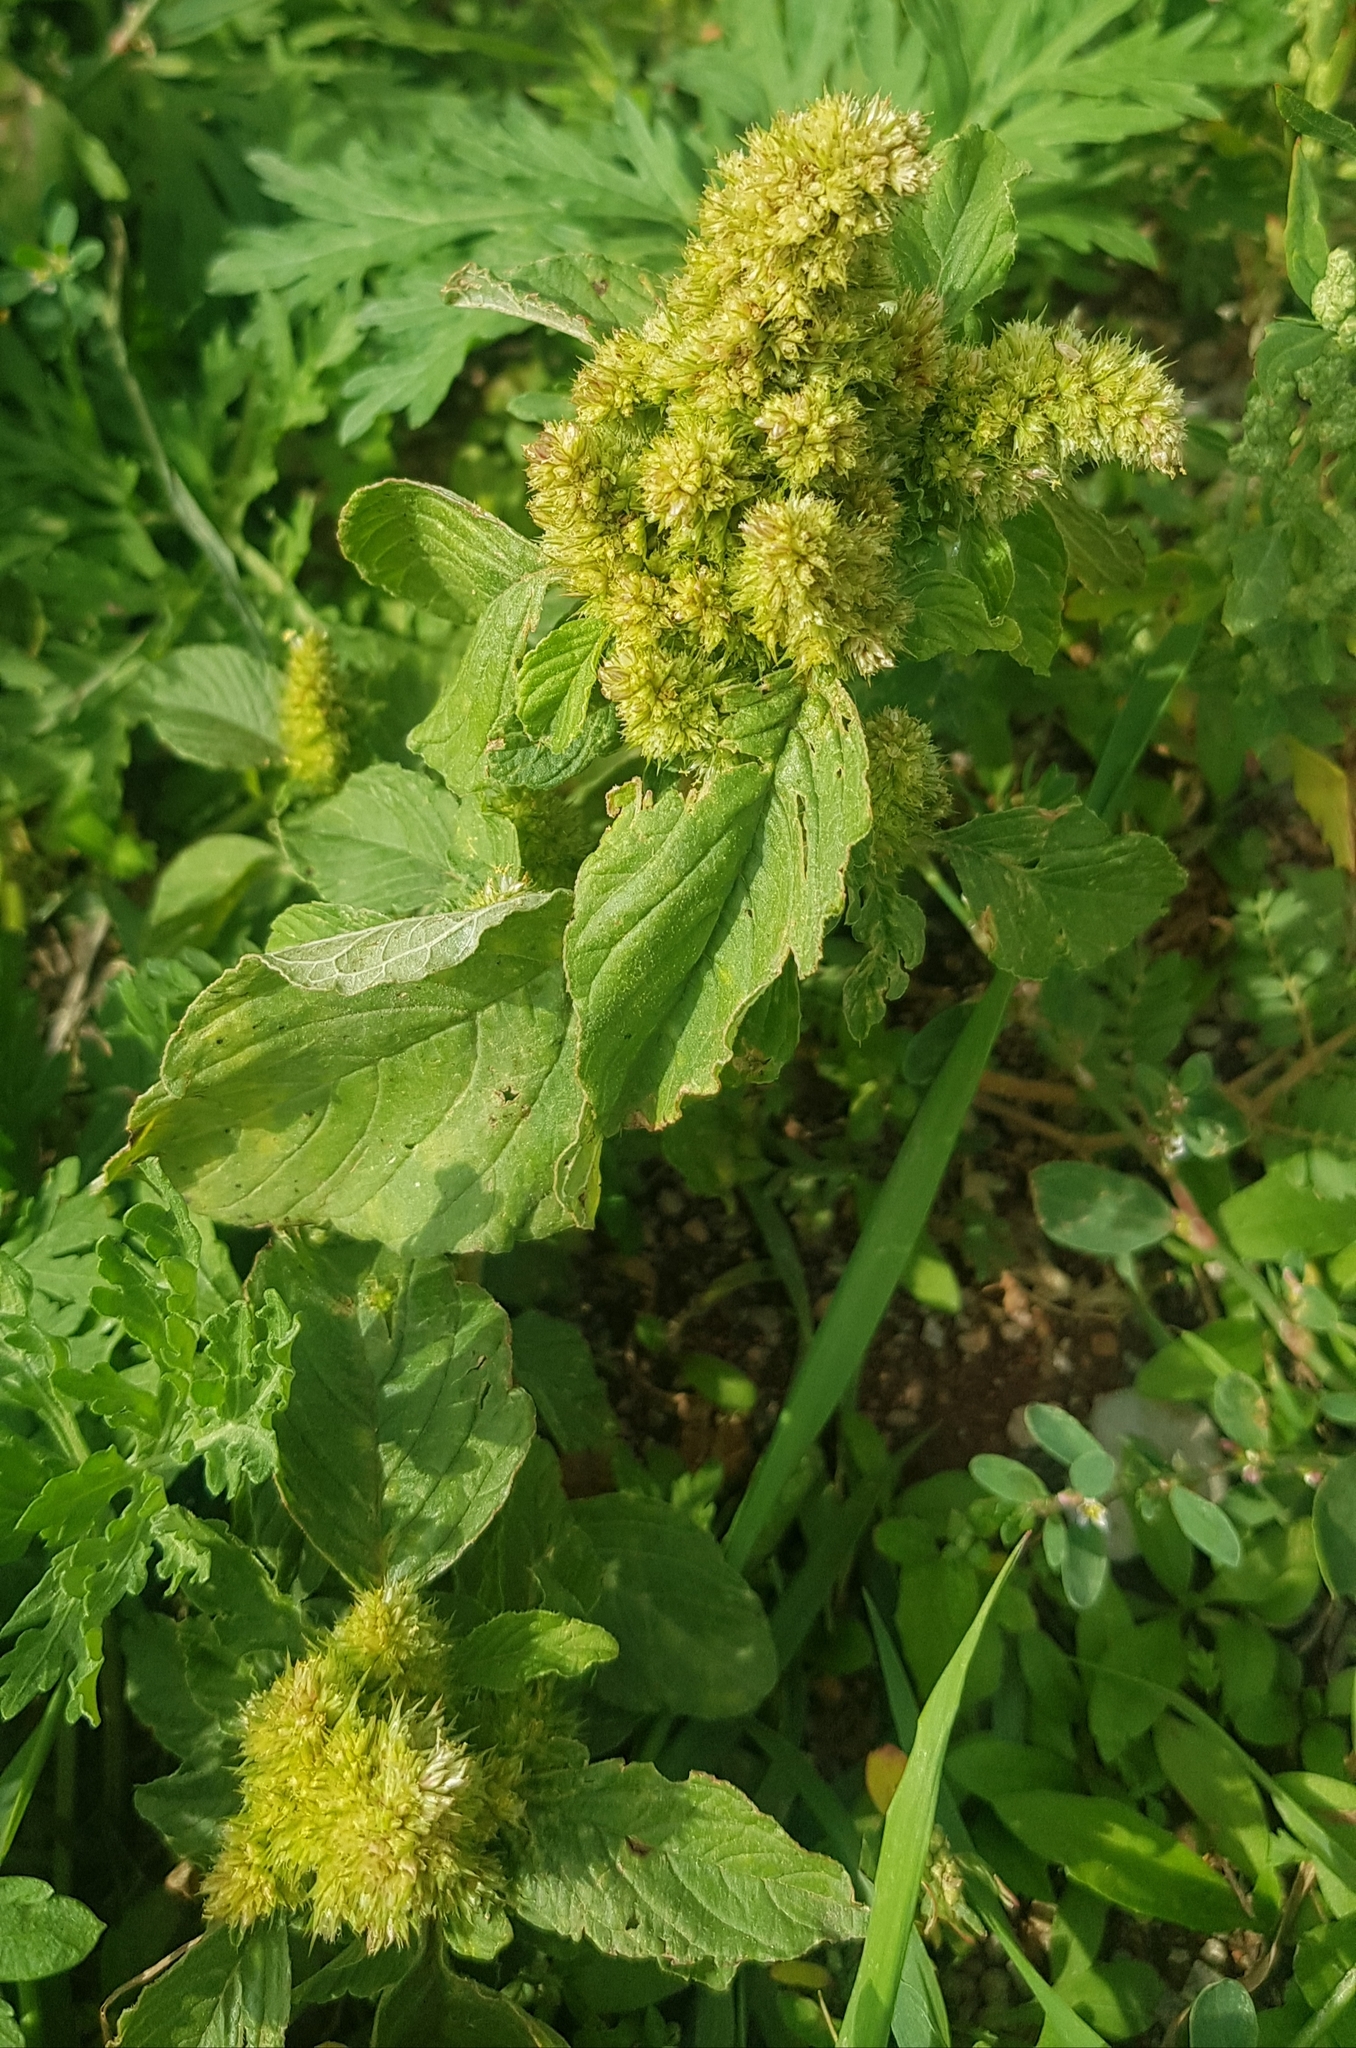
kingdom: Plantae
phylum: Tracheophyta
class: Magnoliopsida
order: Caryophyllales
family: Amaranthaceae
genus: Amaranthus
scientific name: Amaranthus retroflexus
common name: Redroot amaranth
